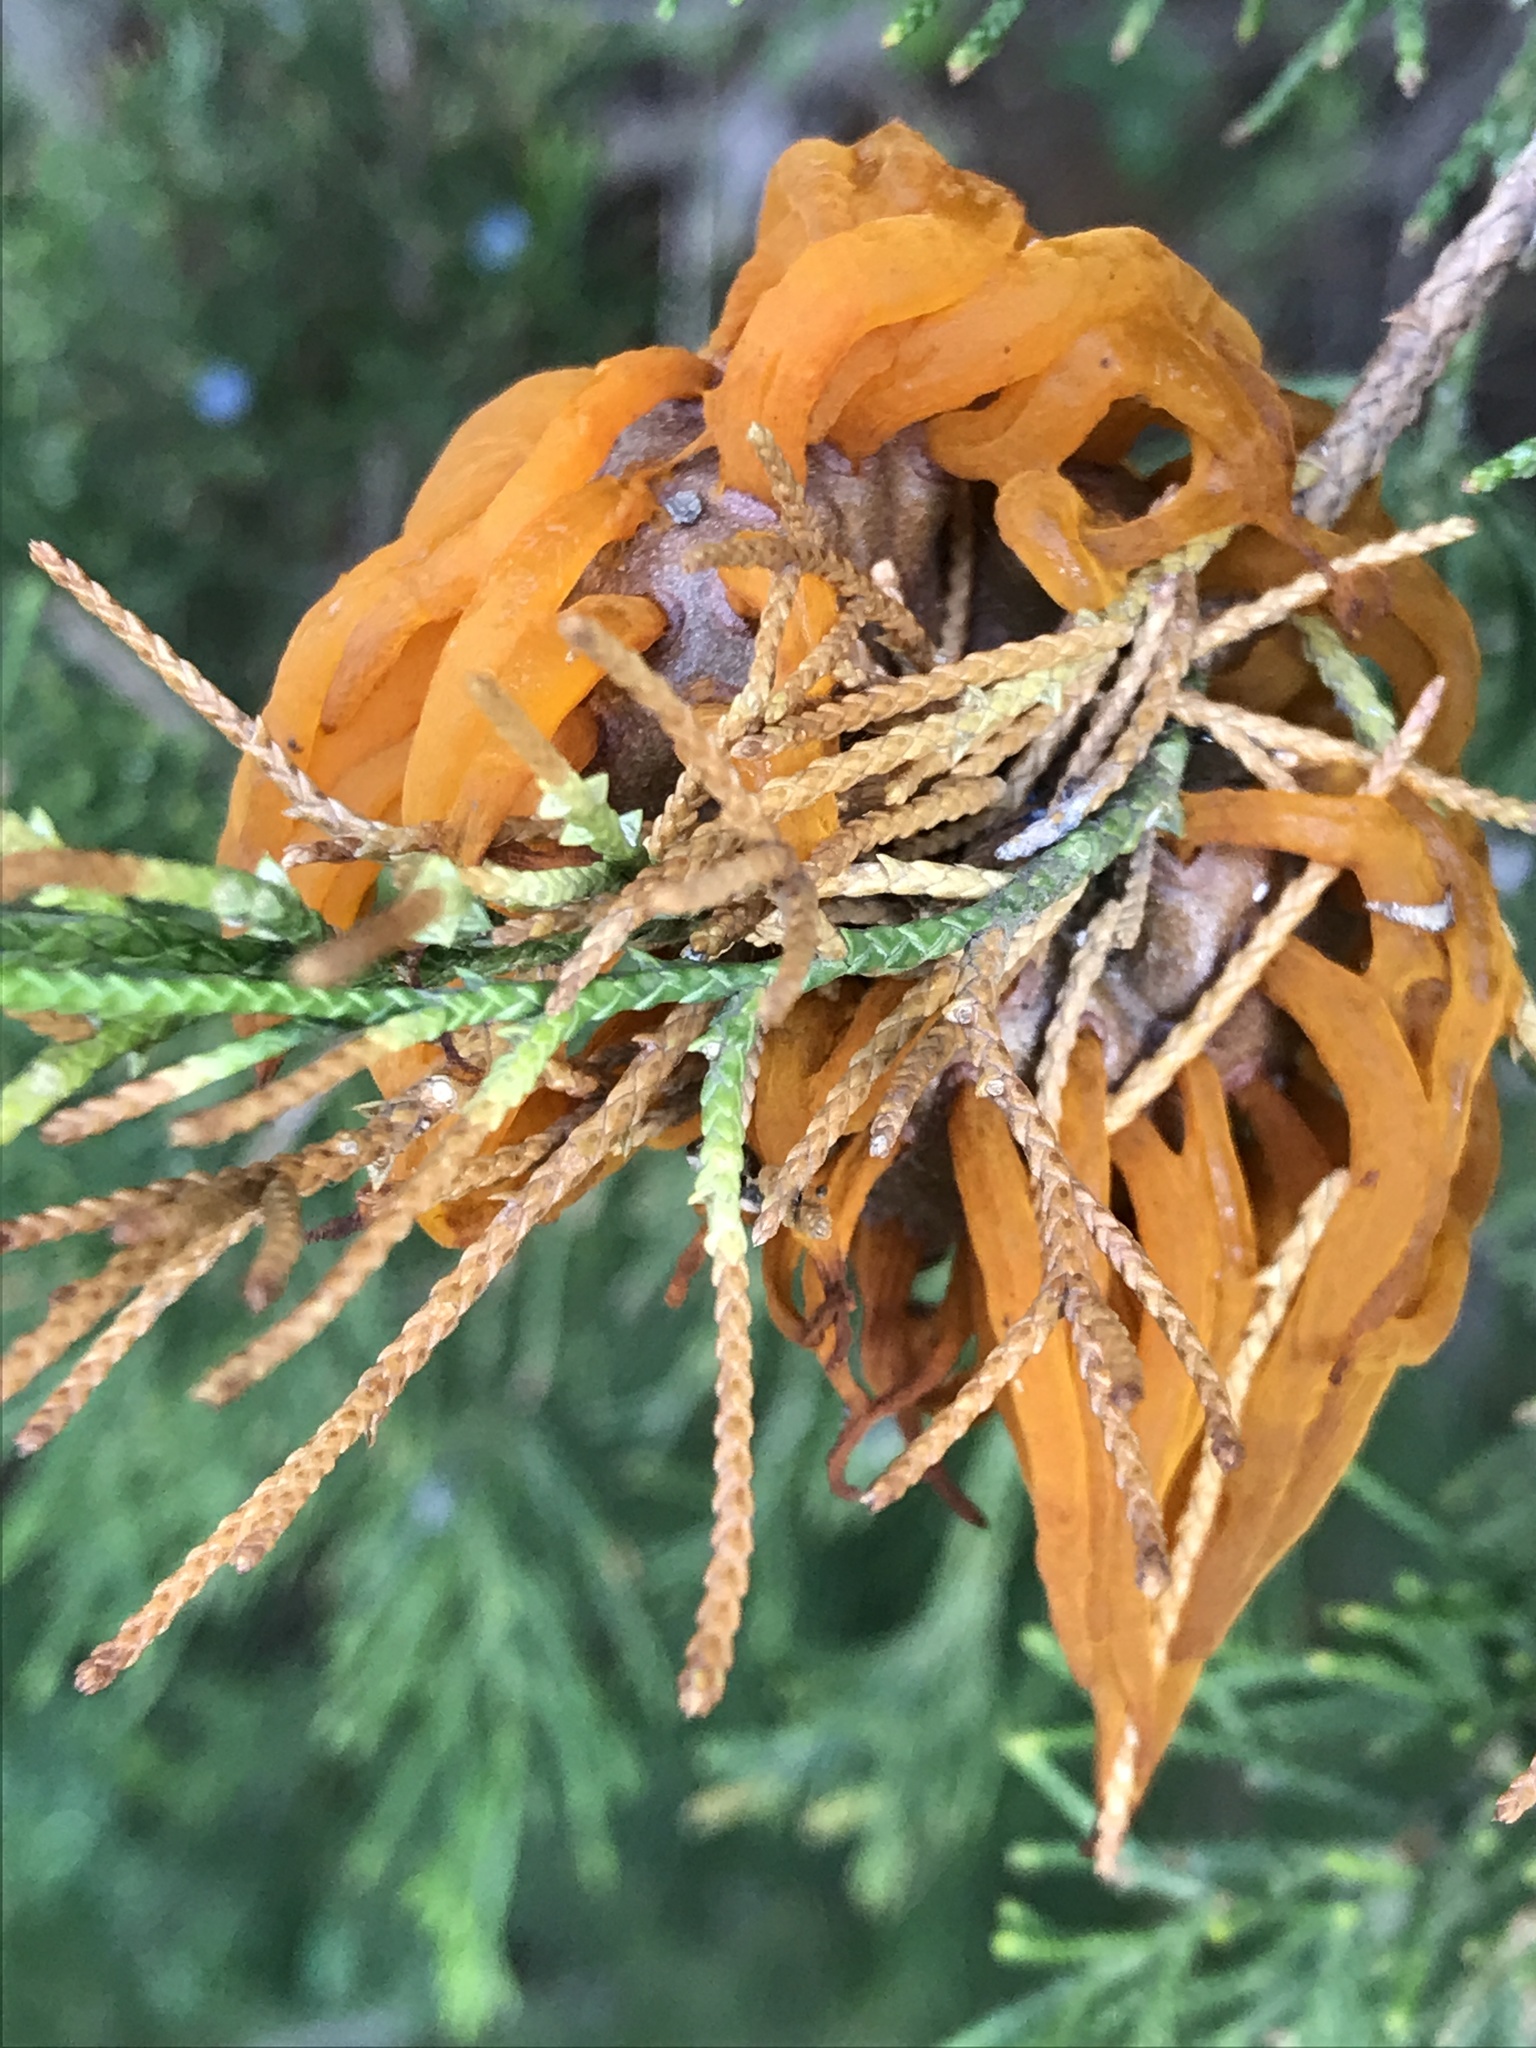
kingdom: Fungi
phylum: Basidiomycota
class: Pucciniomycetes
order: Pucciniales
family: Gymnosporangiaceae
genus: Gymnosporangium
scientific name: Gymnosporangium juniperi-virginianae
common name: Juniper-apple rust
